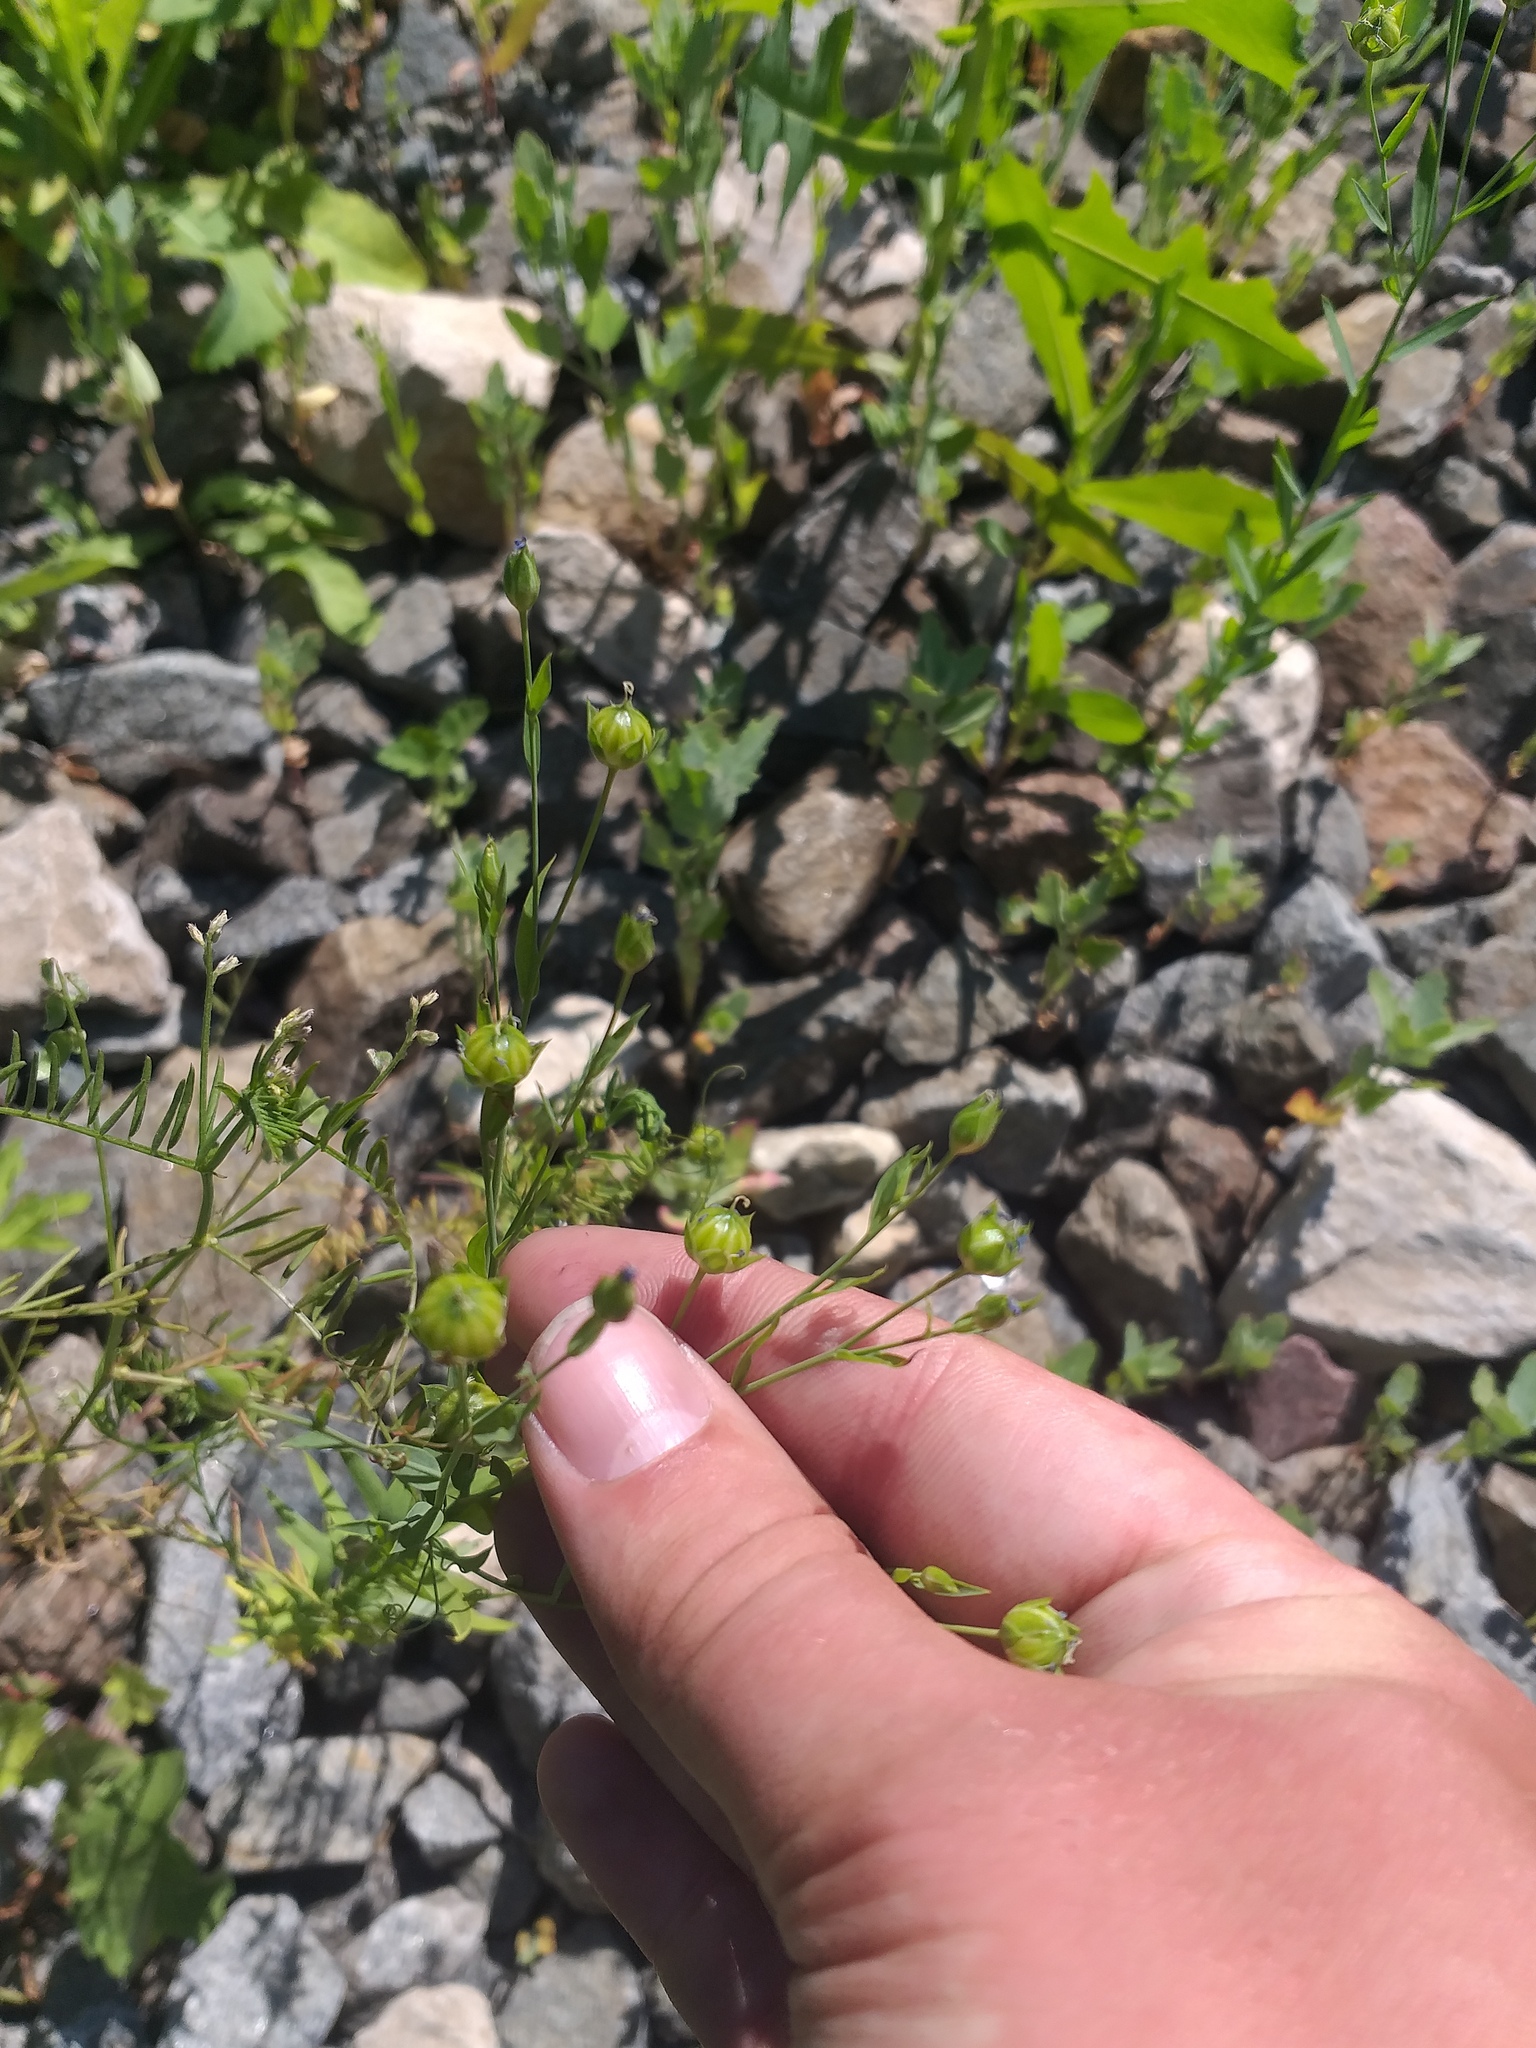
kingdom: Plantae
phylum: Tracheophyta
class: Magnoliopsida
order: Malpighiales
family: Linaceae
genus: Linum
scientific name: Linum usitatissimum
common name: Flax
